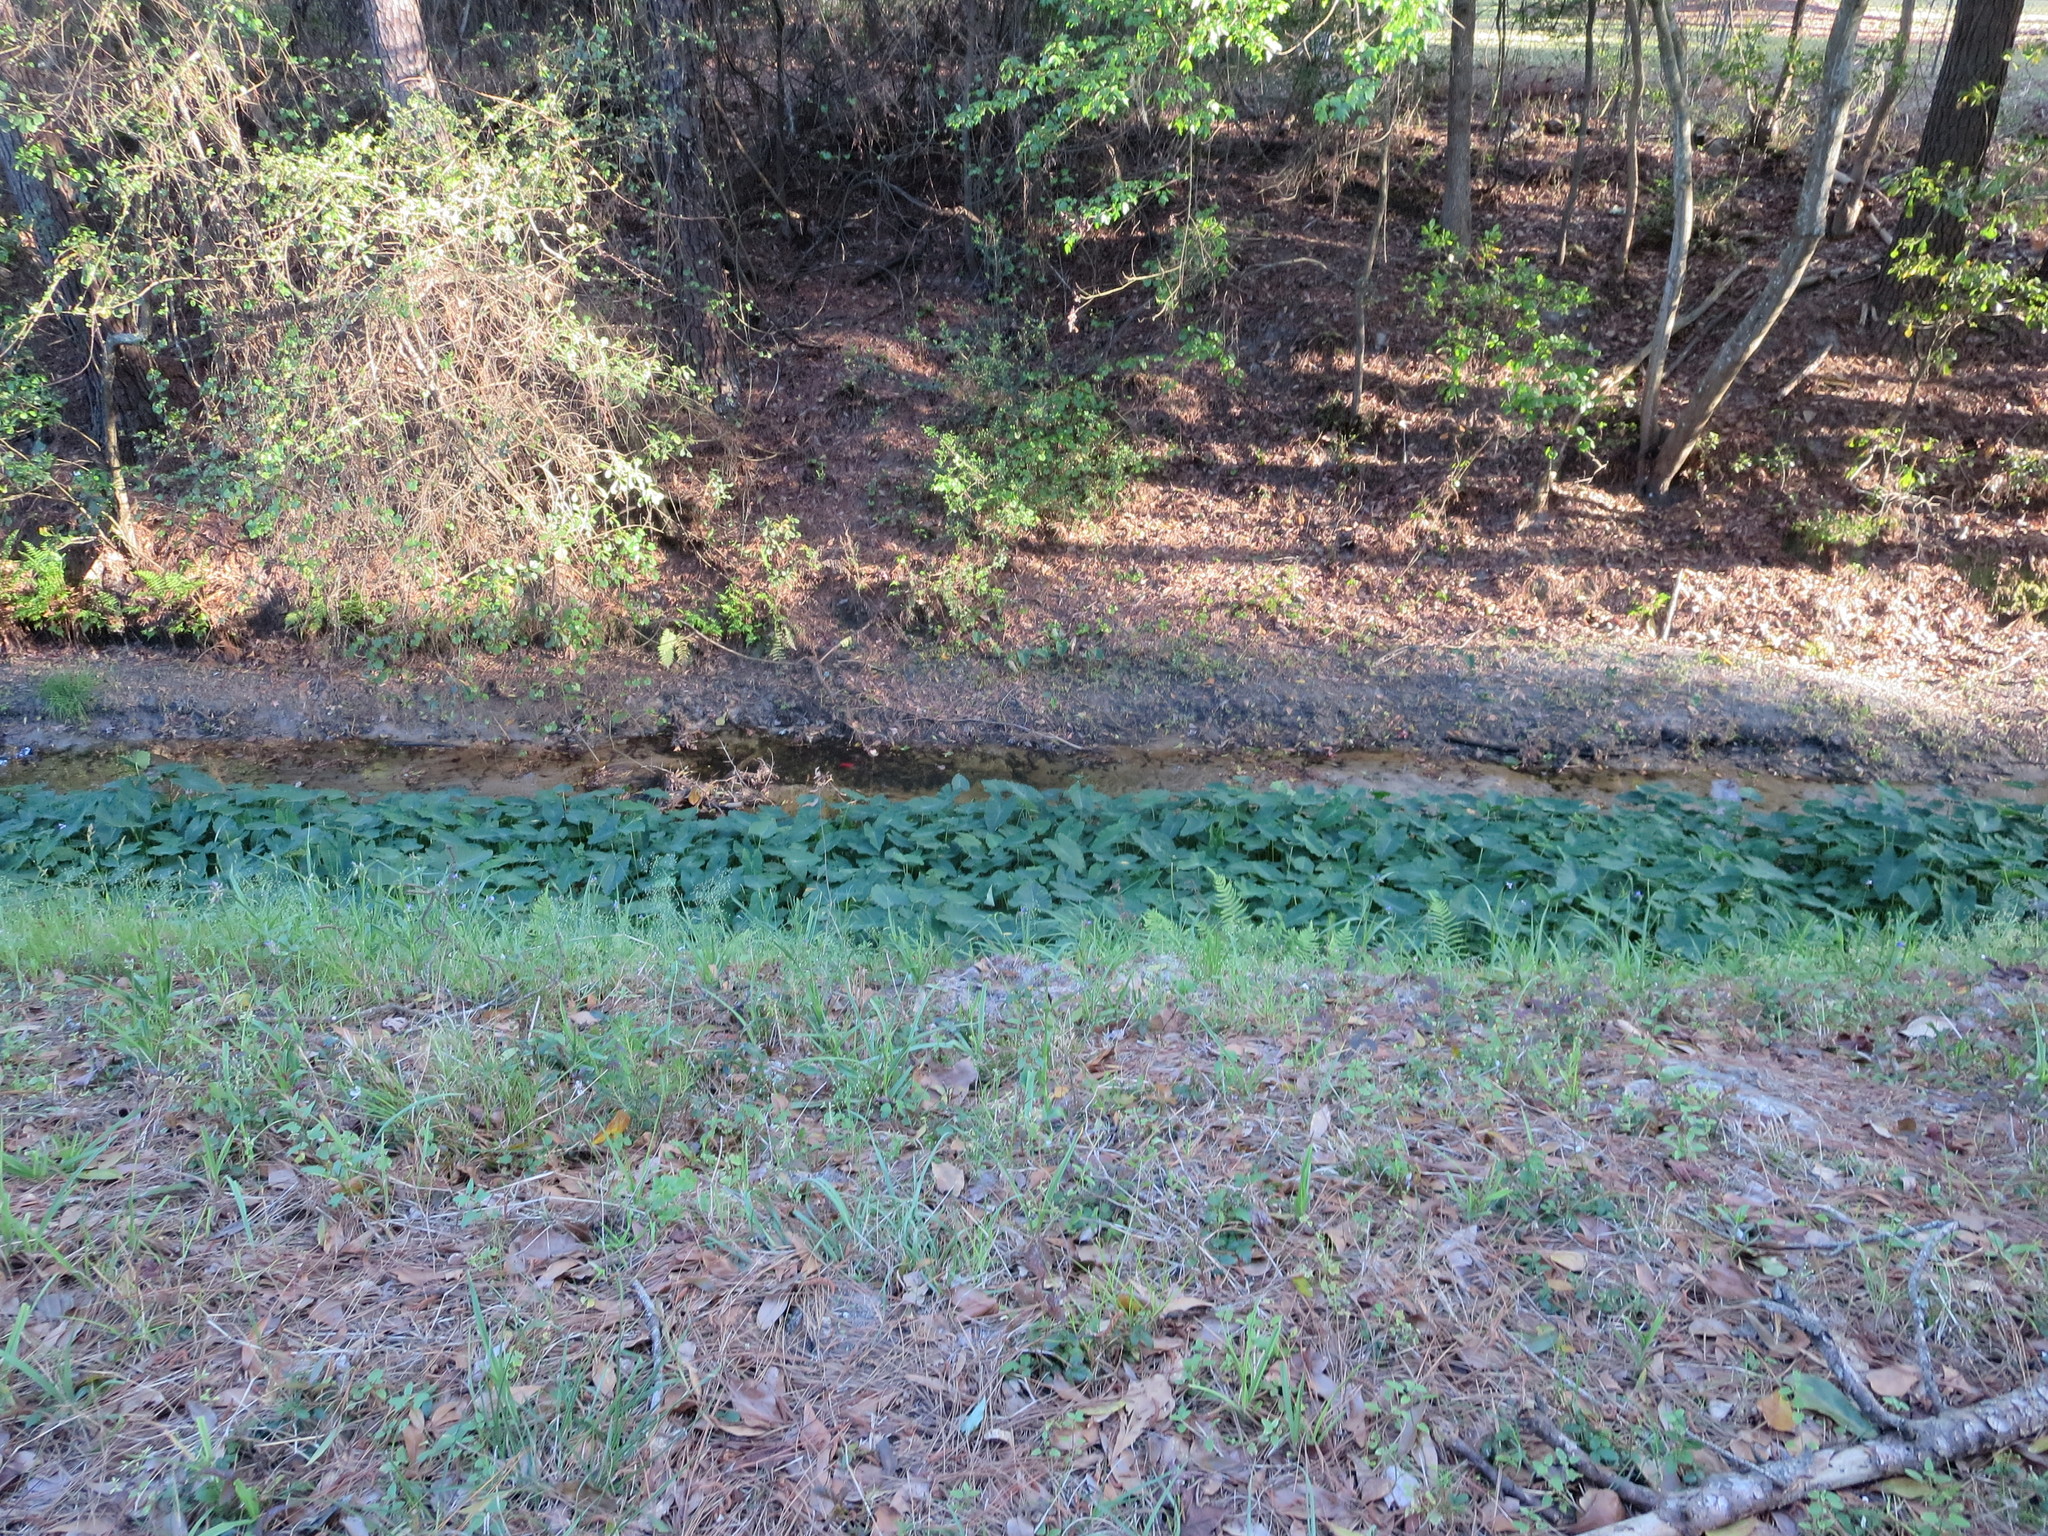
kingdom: Plantae
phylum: Tracheophyta
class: Liliopsida
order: Alismatales
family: Araceae
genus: Colocasia
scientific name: Colocasia esculenta
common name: Taro
